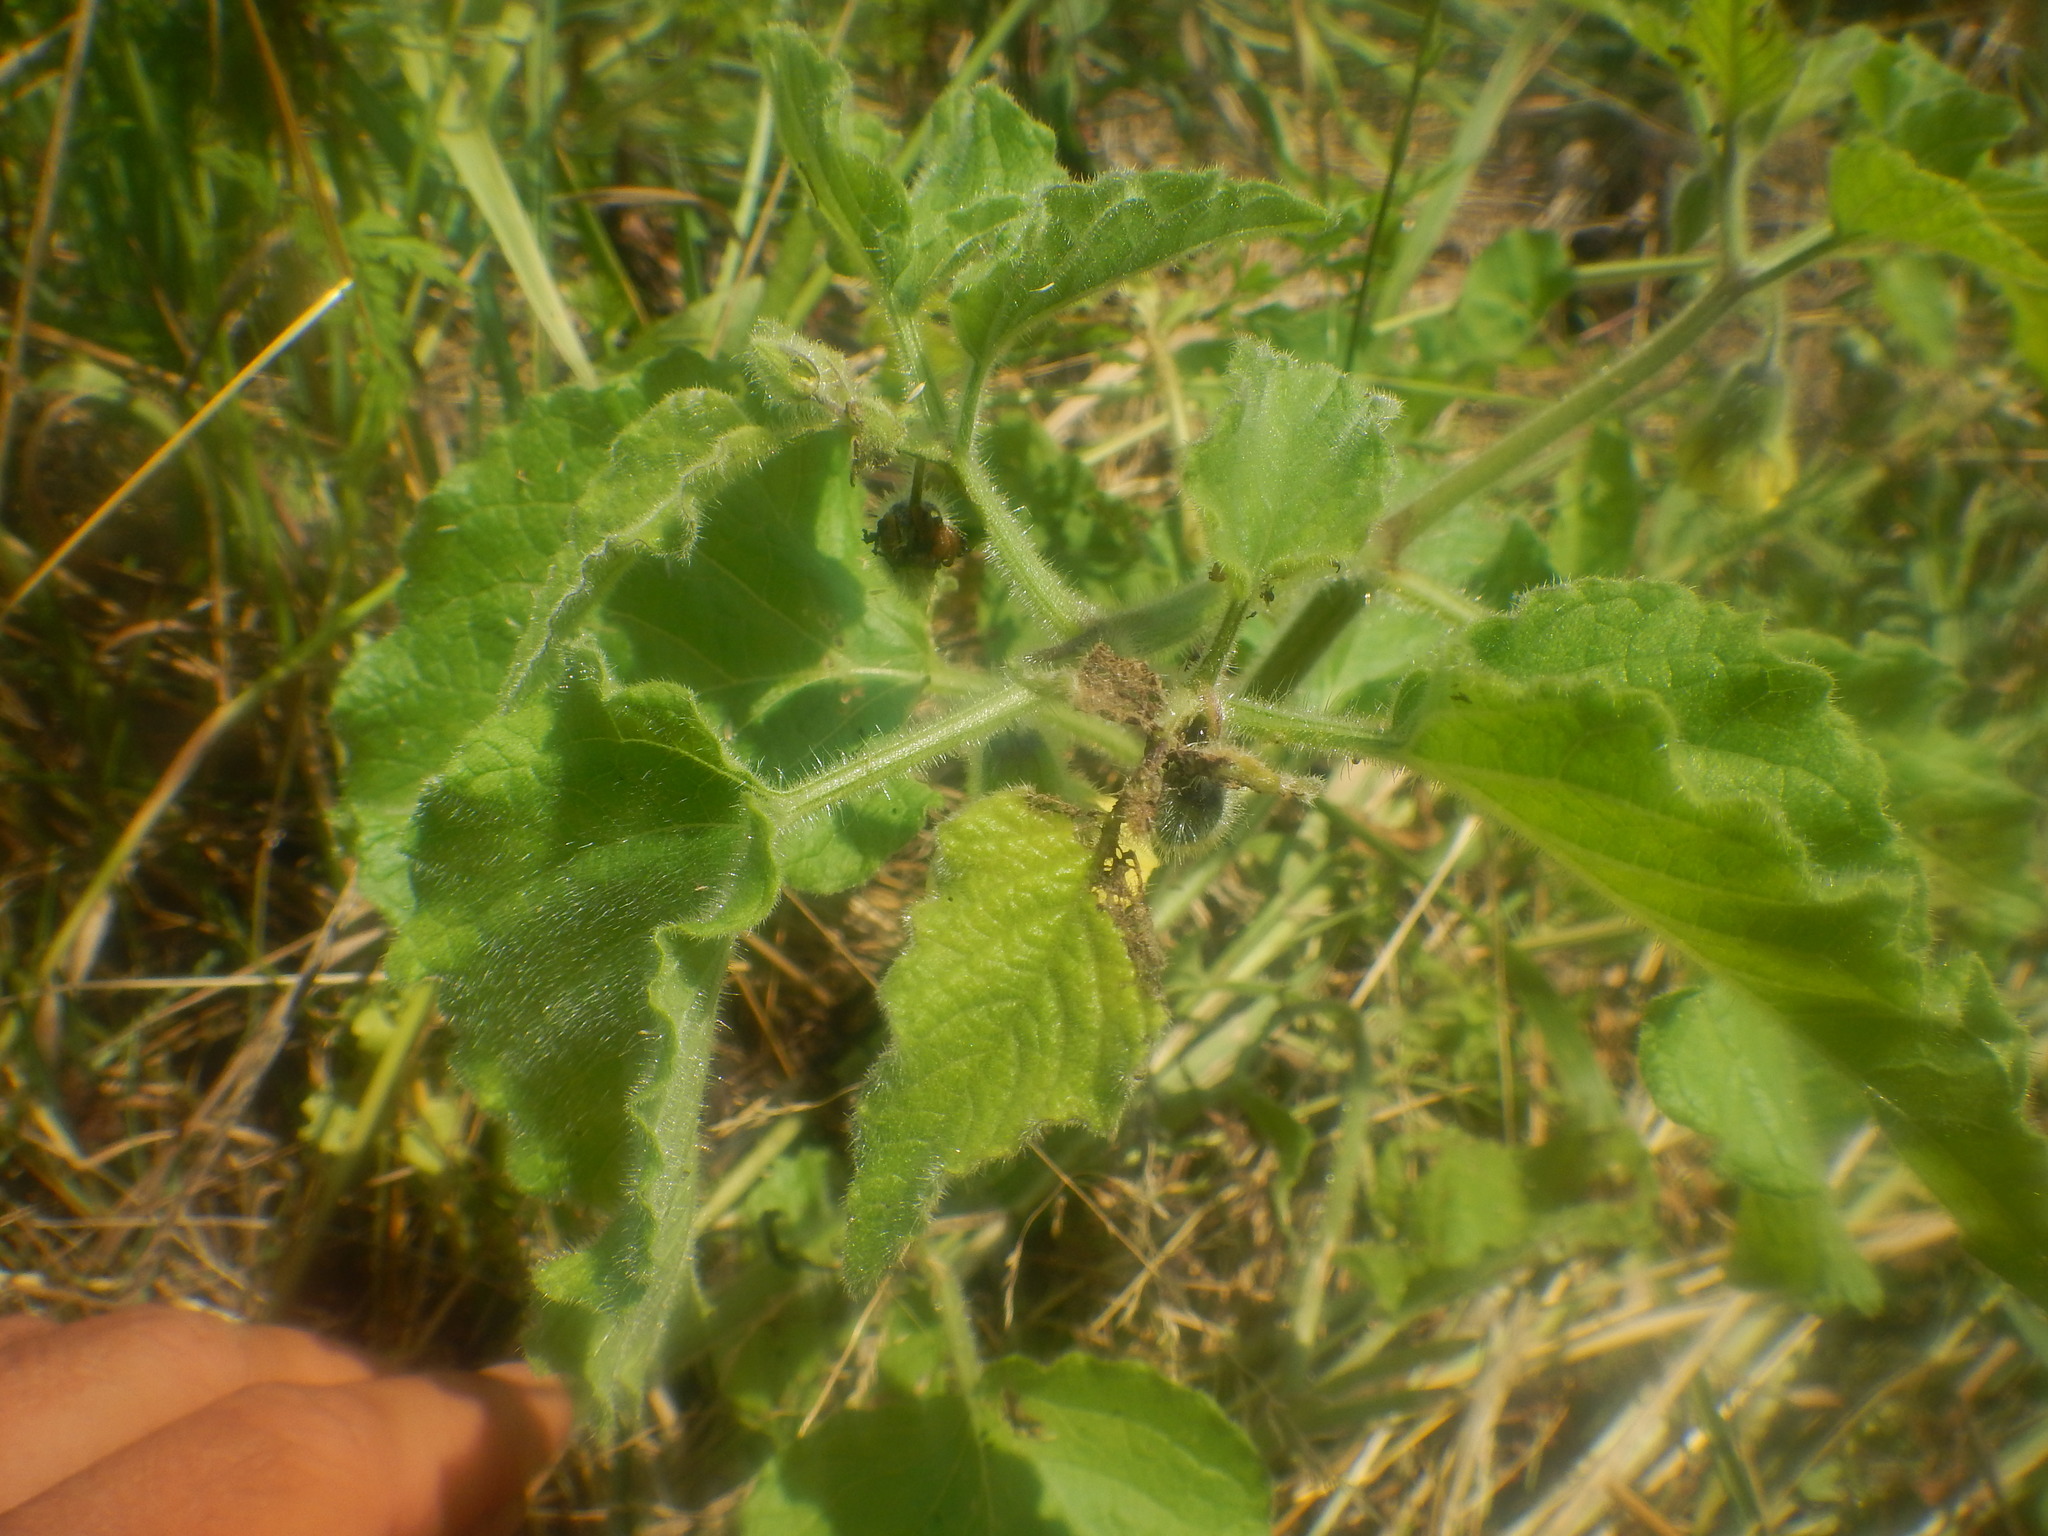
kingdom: Plantae
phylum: Tracheophyta
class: Magnoliopsida
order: Solanales
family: Solanaceae
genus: Physalis
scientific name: Physalis heterophylla
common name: Clammy ground-cherry
